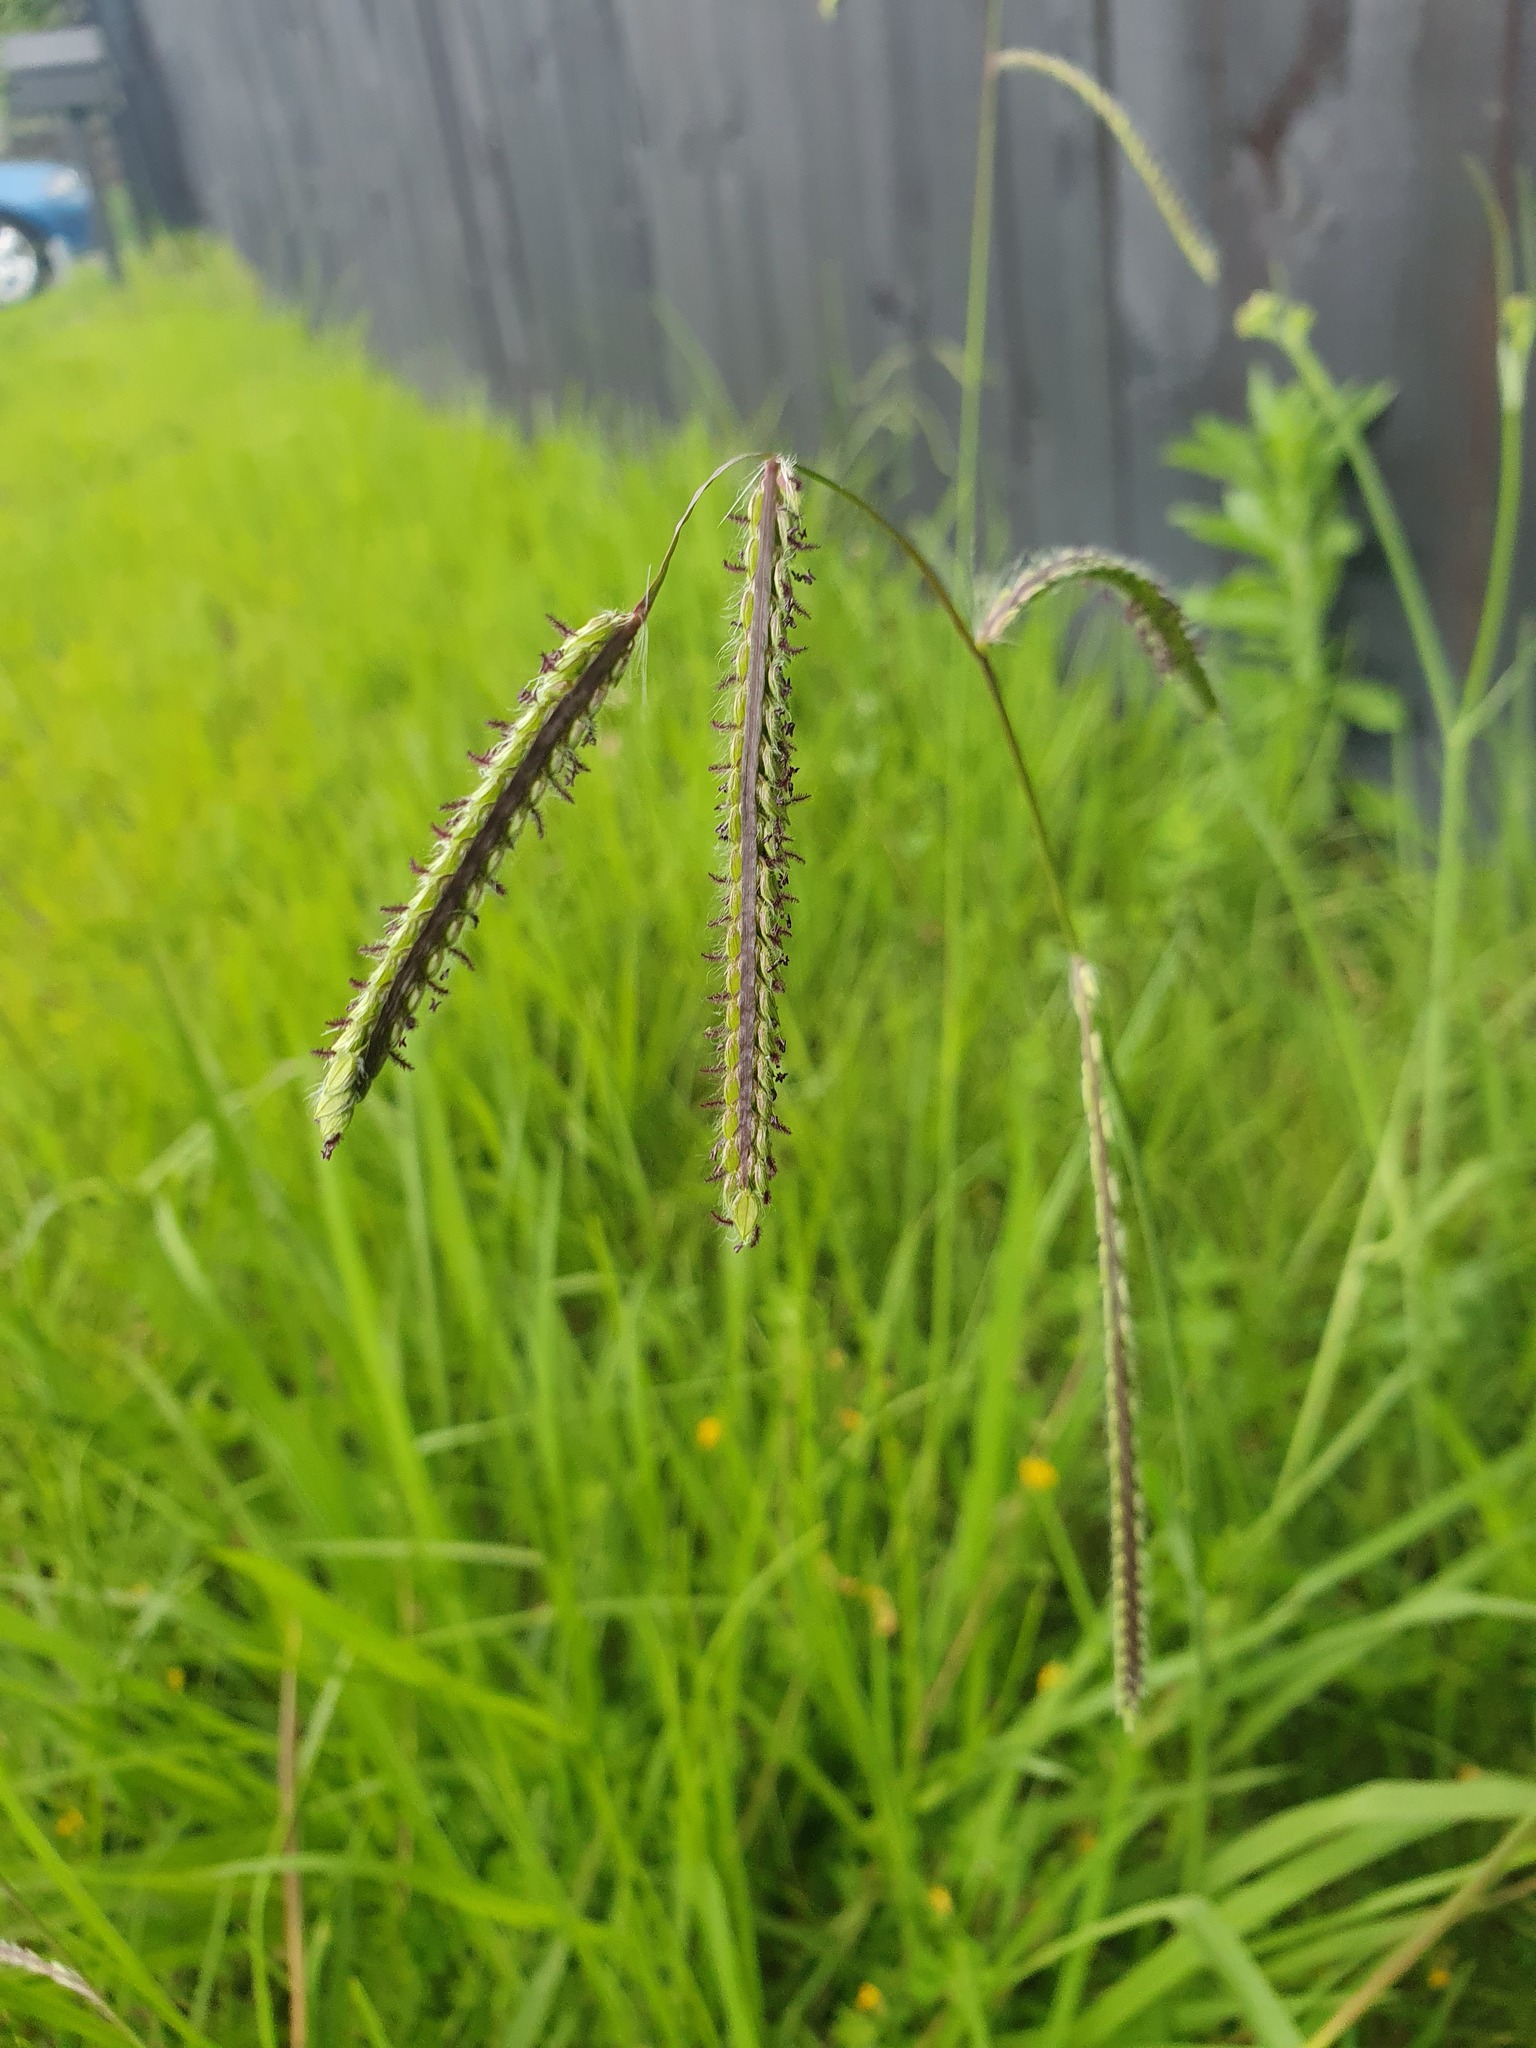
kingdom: Plantae
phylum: Tracheophyta
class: Liliopsida
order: Poales
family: Poaceae
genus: Paspalum
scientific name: Paspalum dilatatum
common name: Dallisgrass
